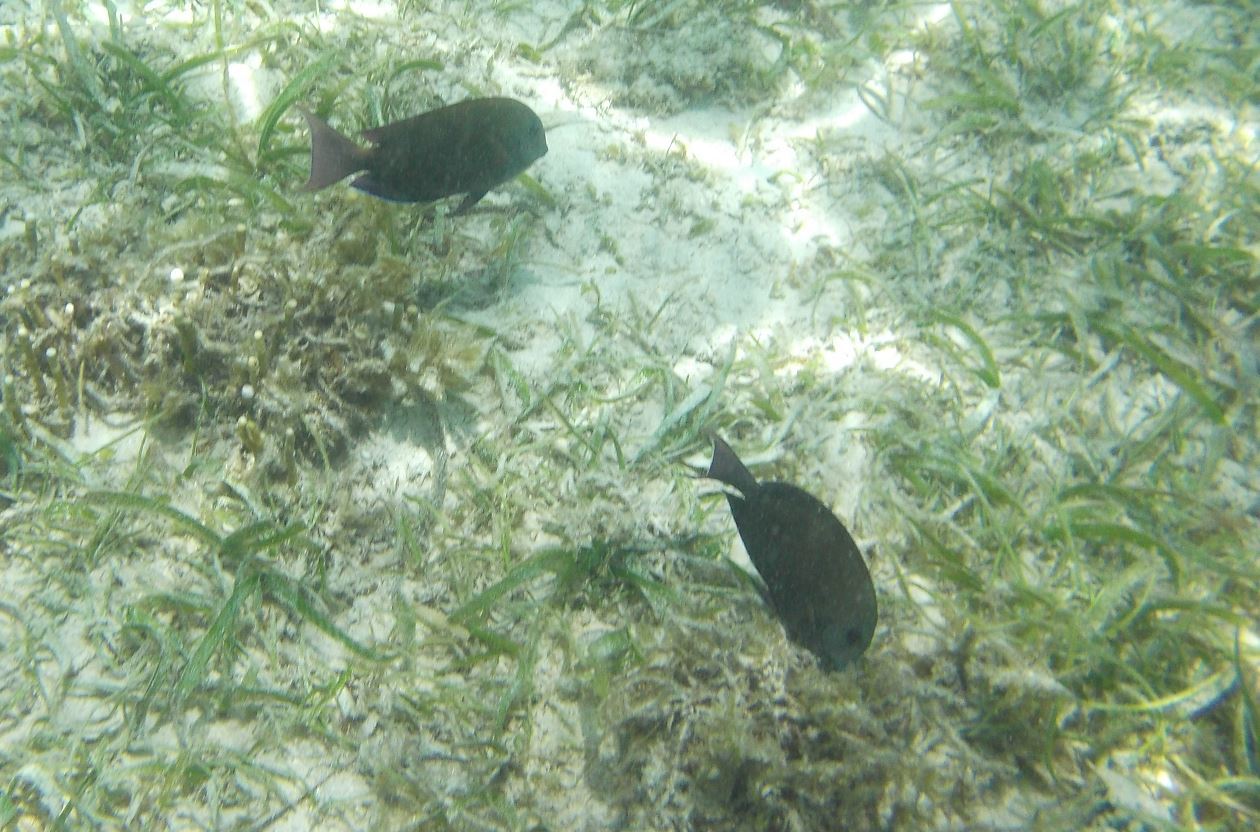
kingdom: Animalia
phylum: Chordata
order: Perciformes
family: Acanthuridae
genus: Acanthurus
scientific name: Acanthurus nigrofuscus
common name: Blackspot surgeonfish
